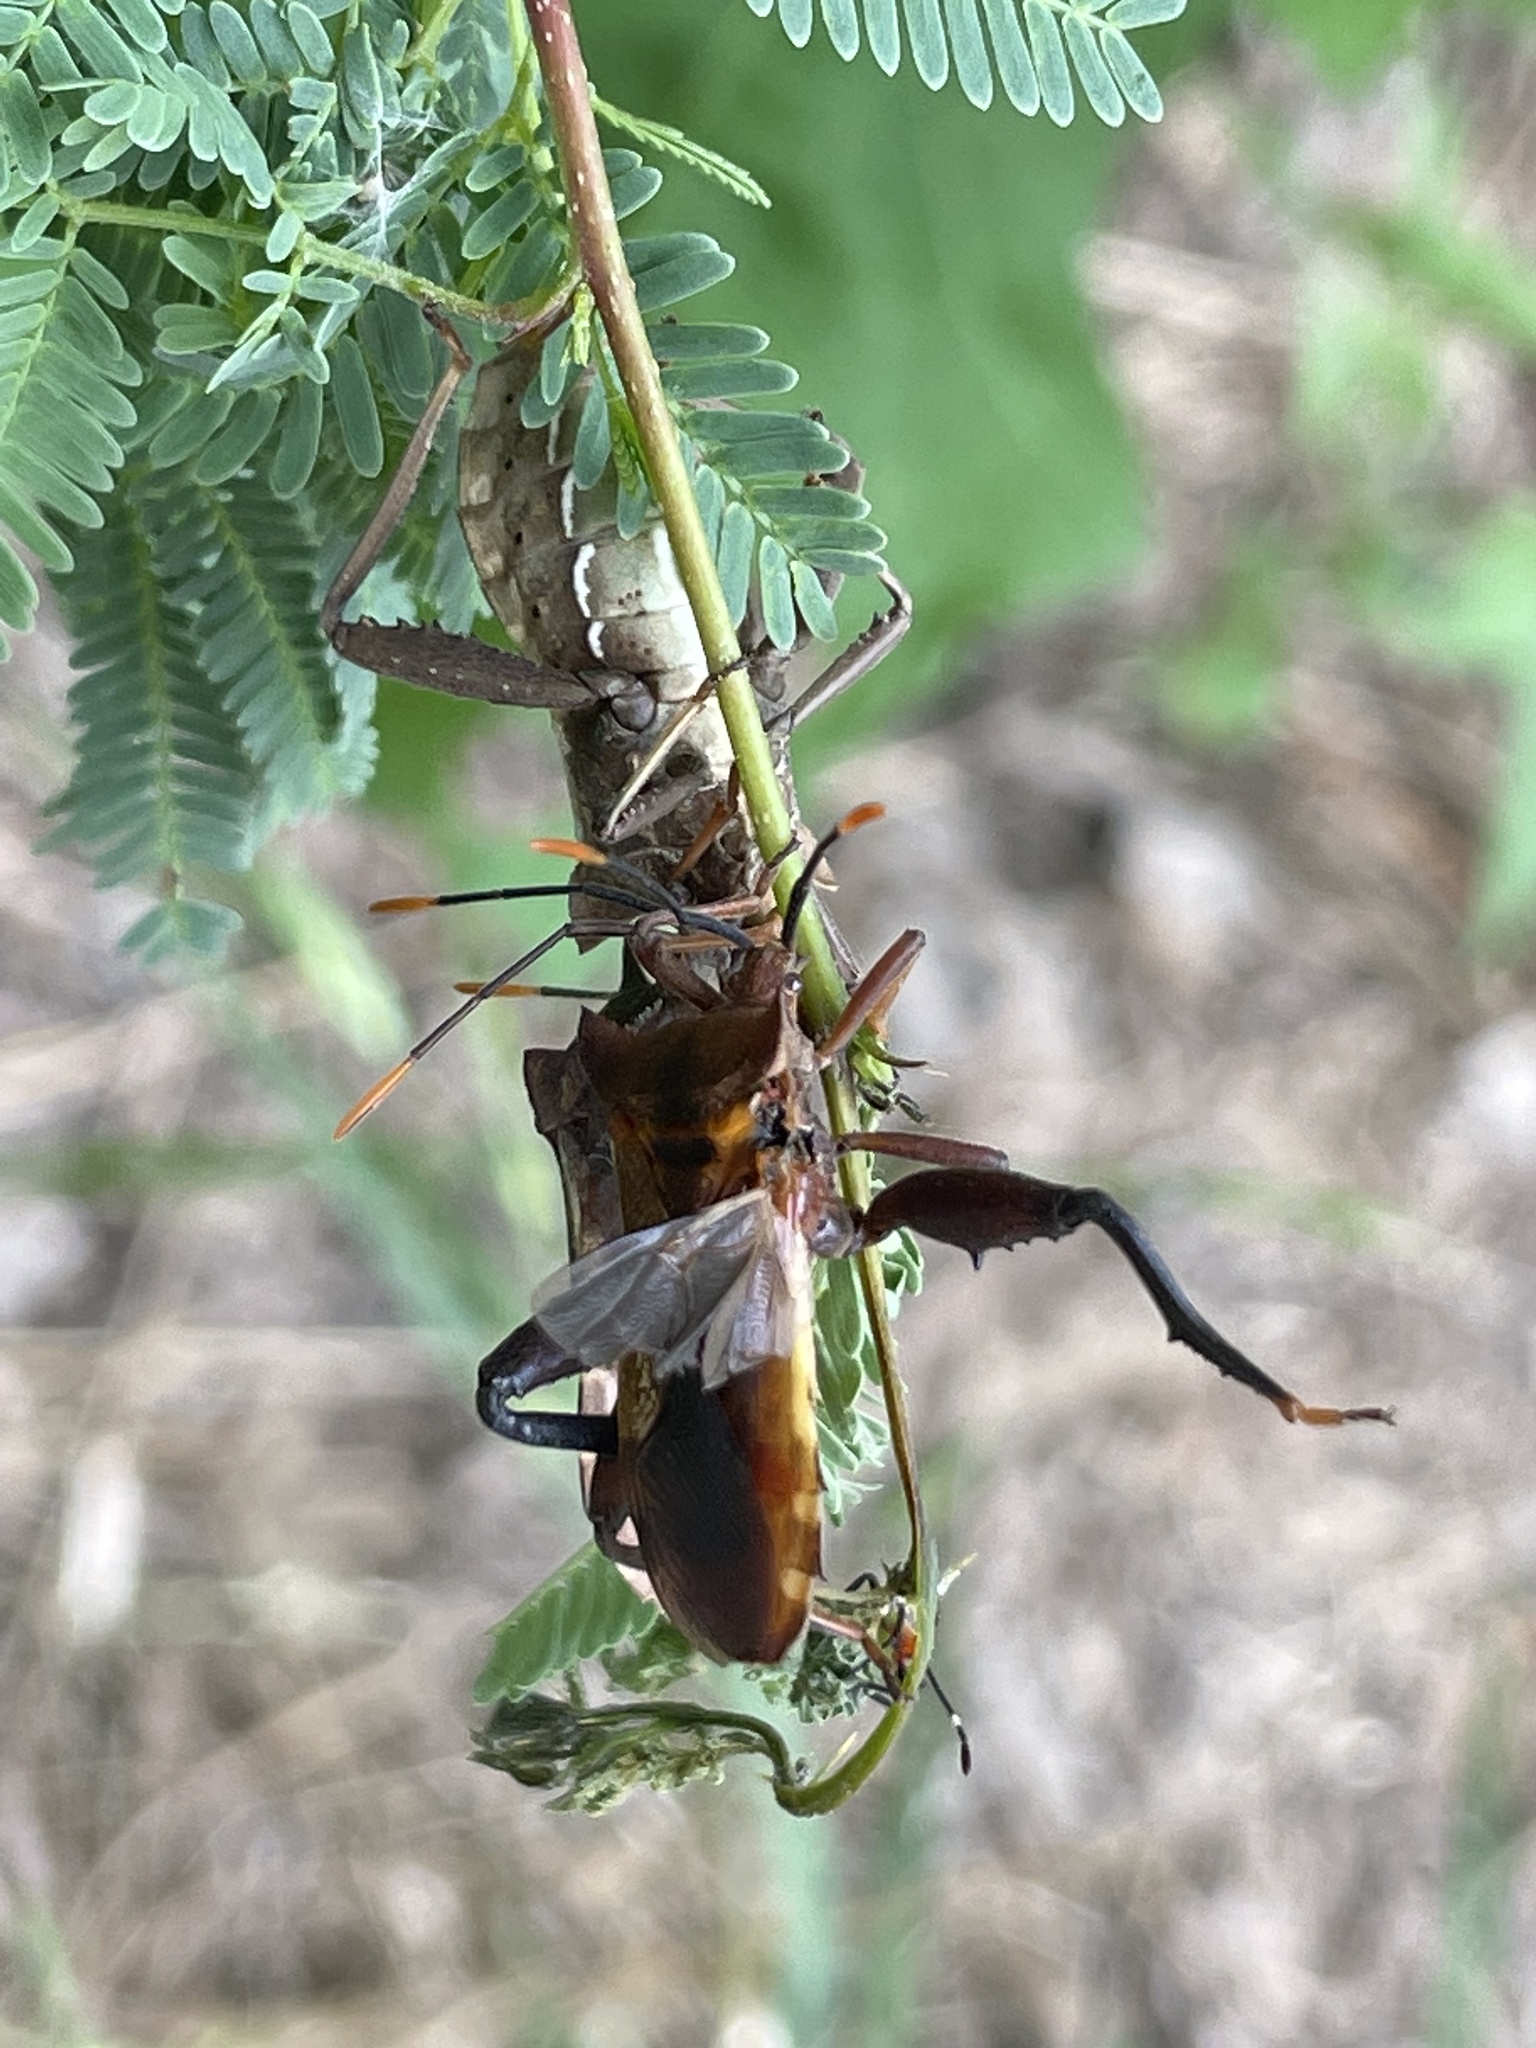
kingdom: Animalia
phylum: Arthropoda
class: Insecta
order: Hemiptera
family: Coreidae
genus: Mozena
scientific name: Mozena lunata
